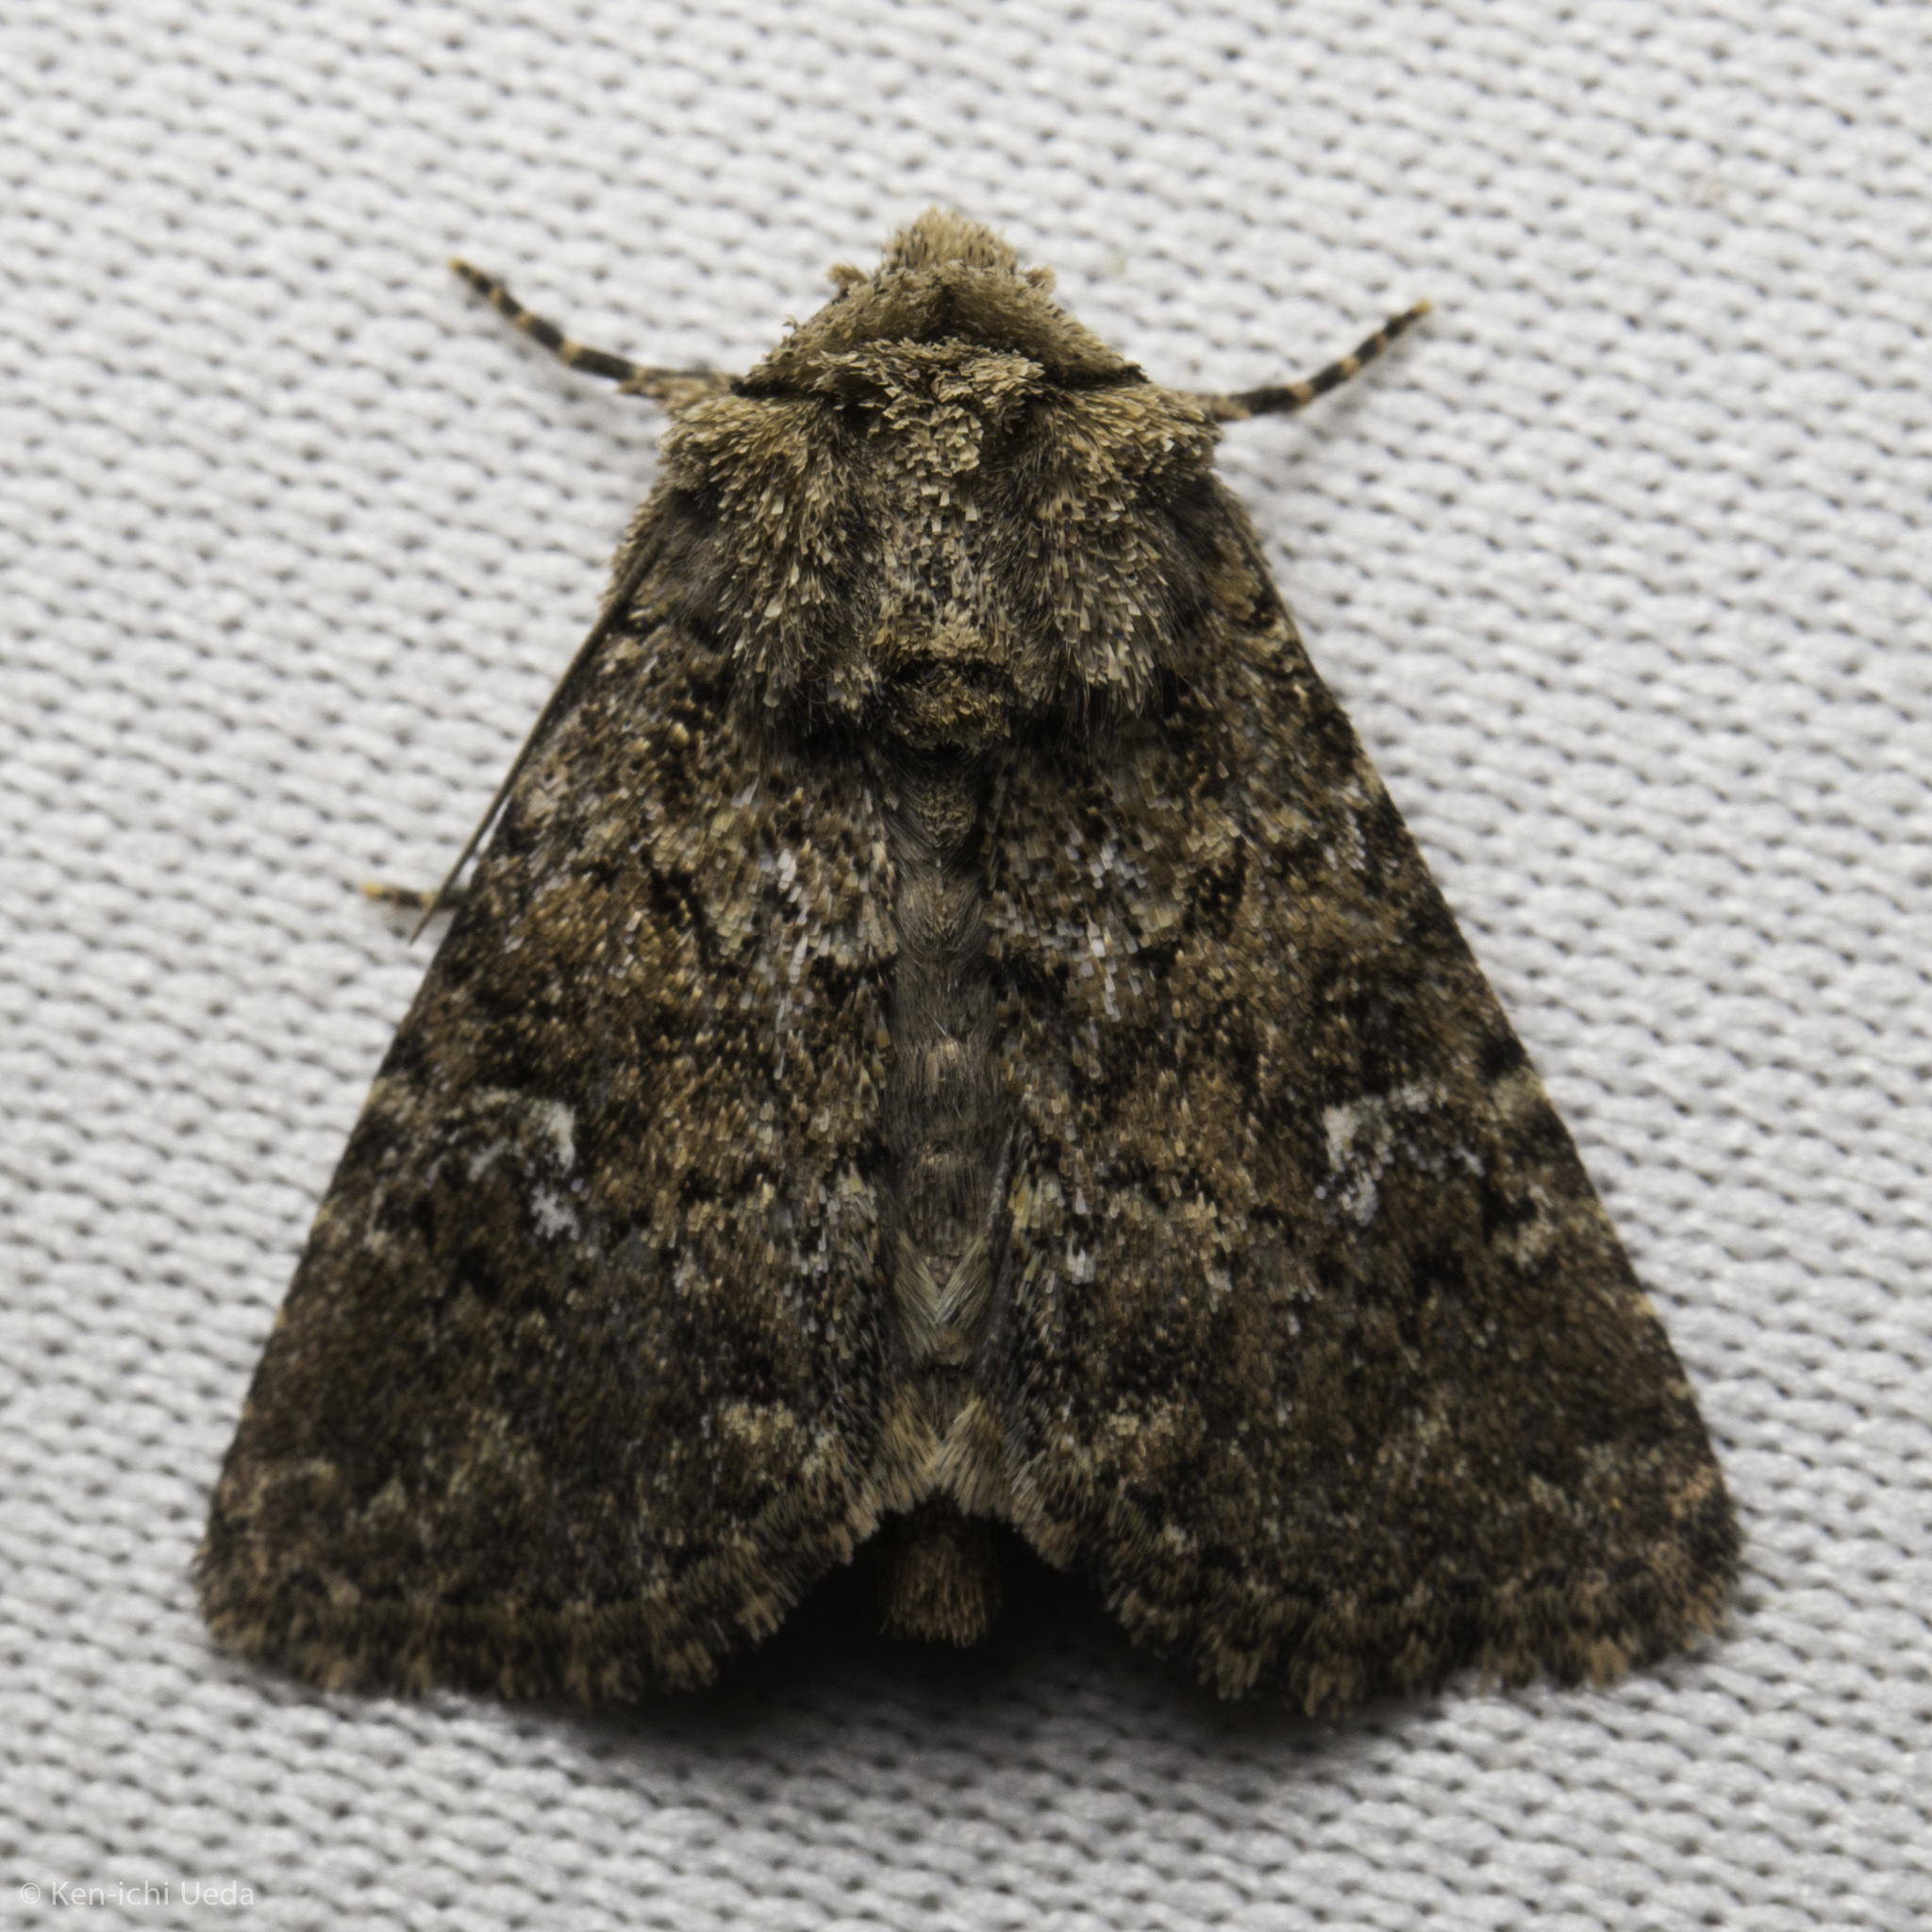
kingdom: Animalia
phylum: Arthropoda
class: Insecta
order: Lepidoptera
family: Noctuidae
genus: Properigea
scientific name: Properigea albimacula
